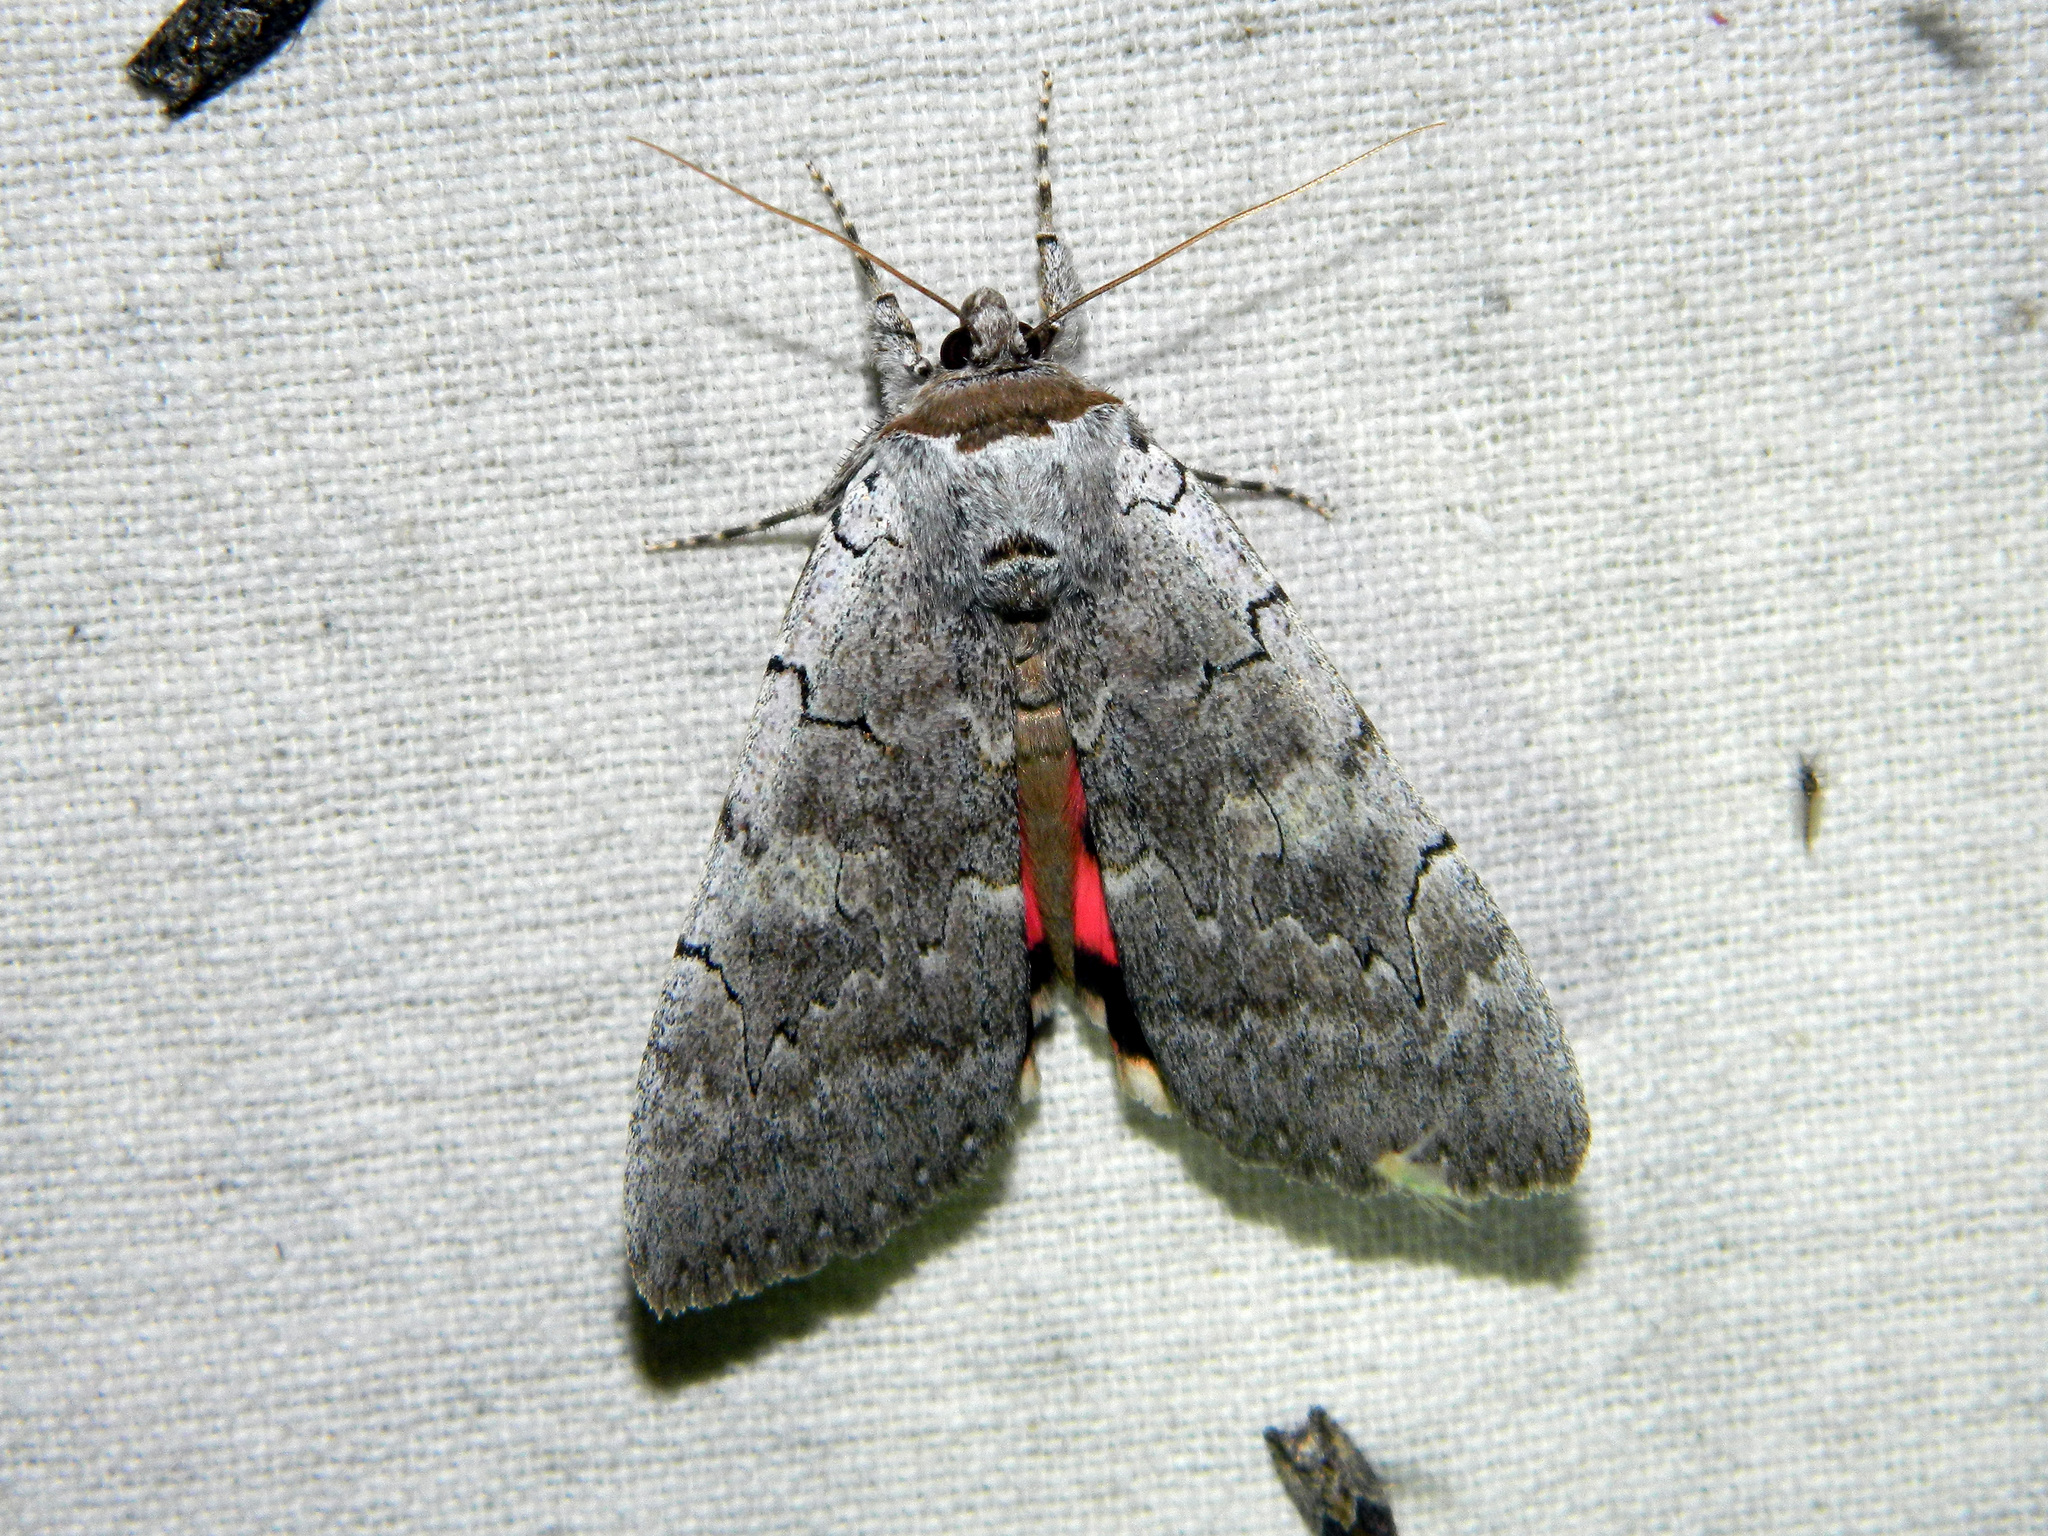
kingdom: Animalia
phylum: Arthropoda
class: Insecta
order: Lepidoptera
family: Erebidae
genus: Catocala
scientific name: Catocala concumbens
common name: Pink underwing
